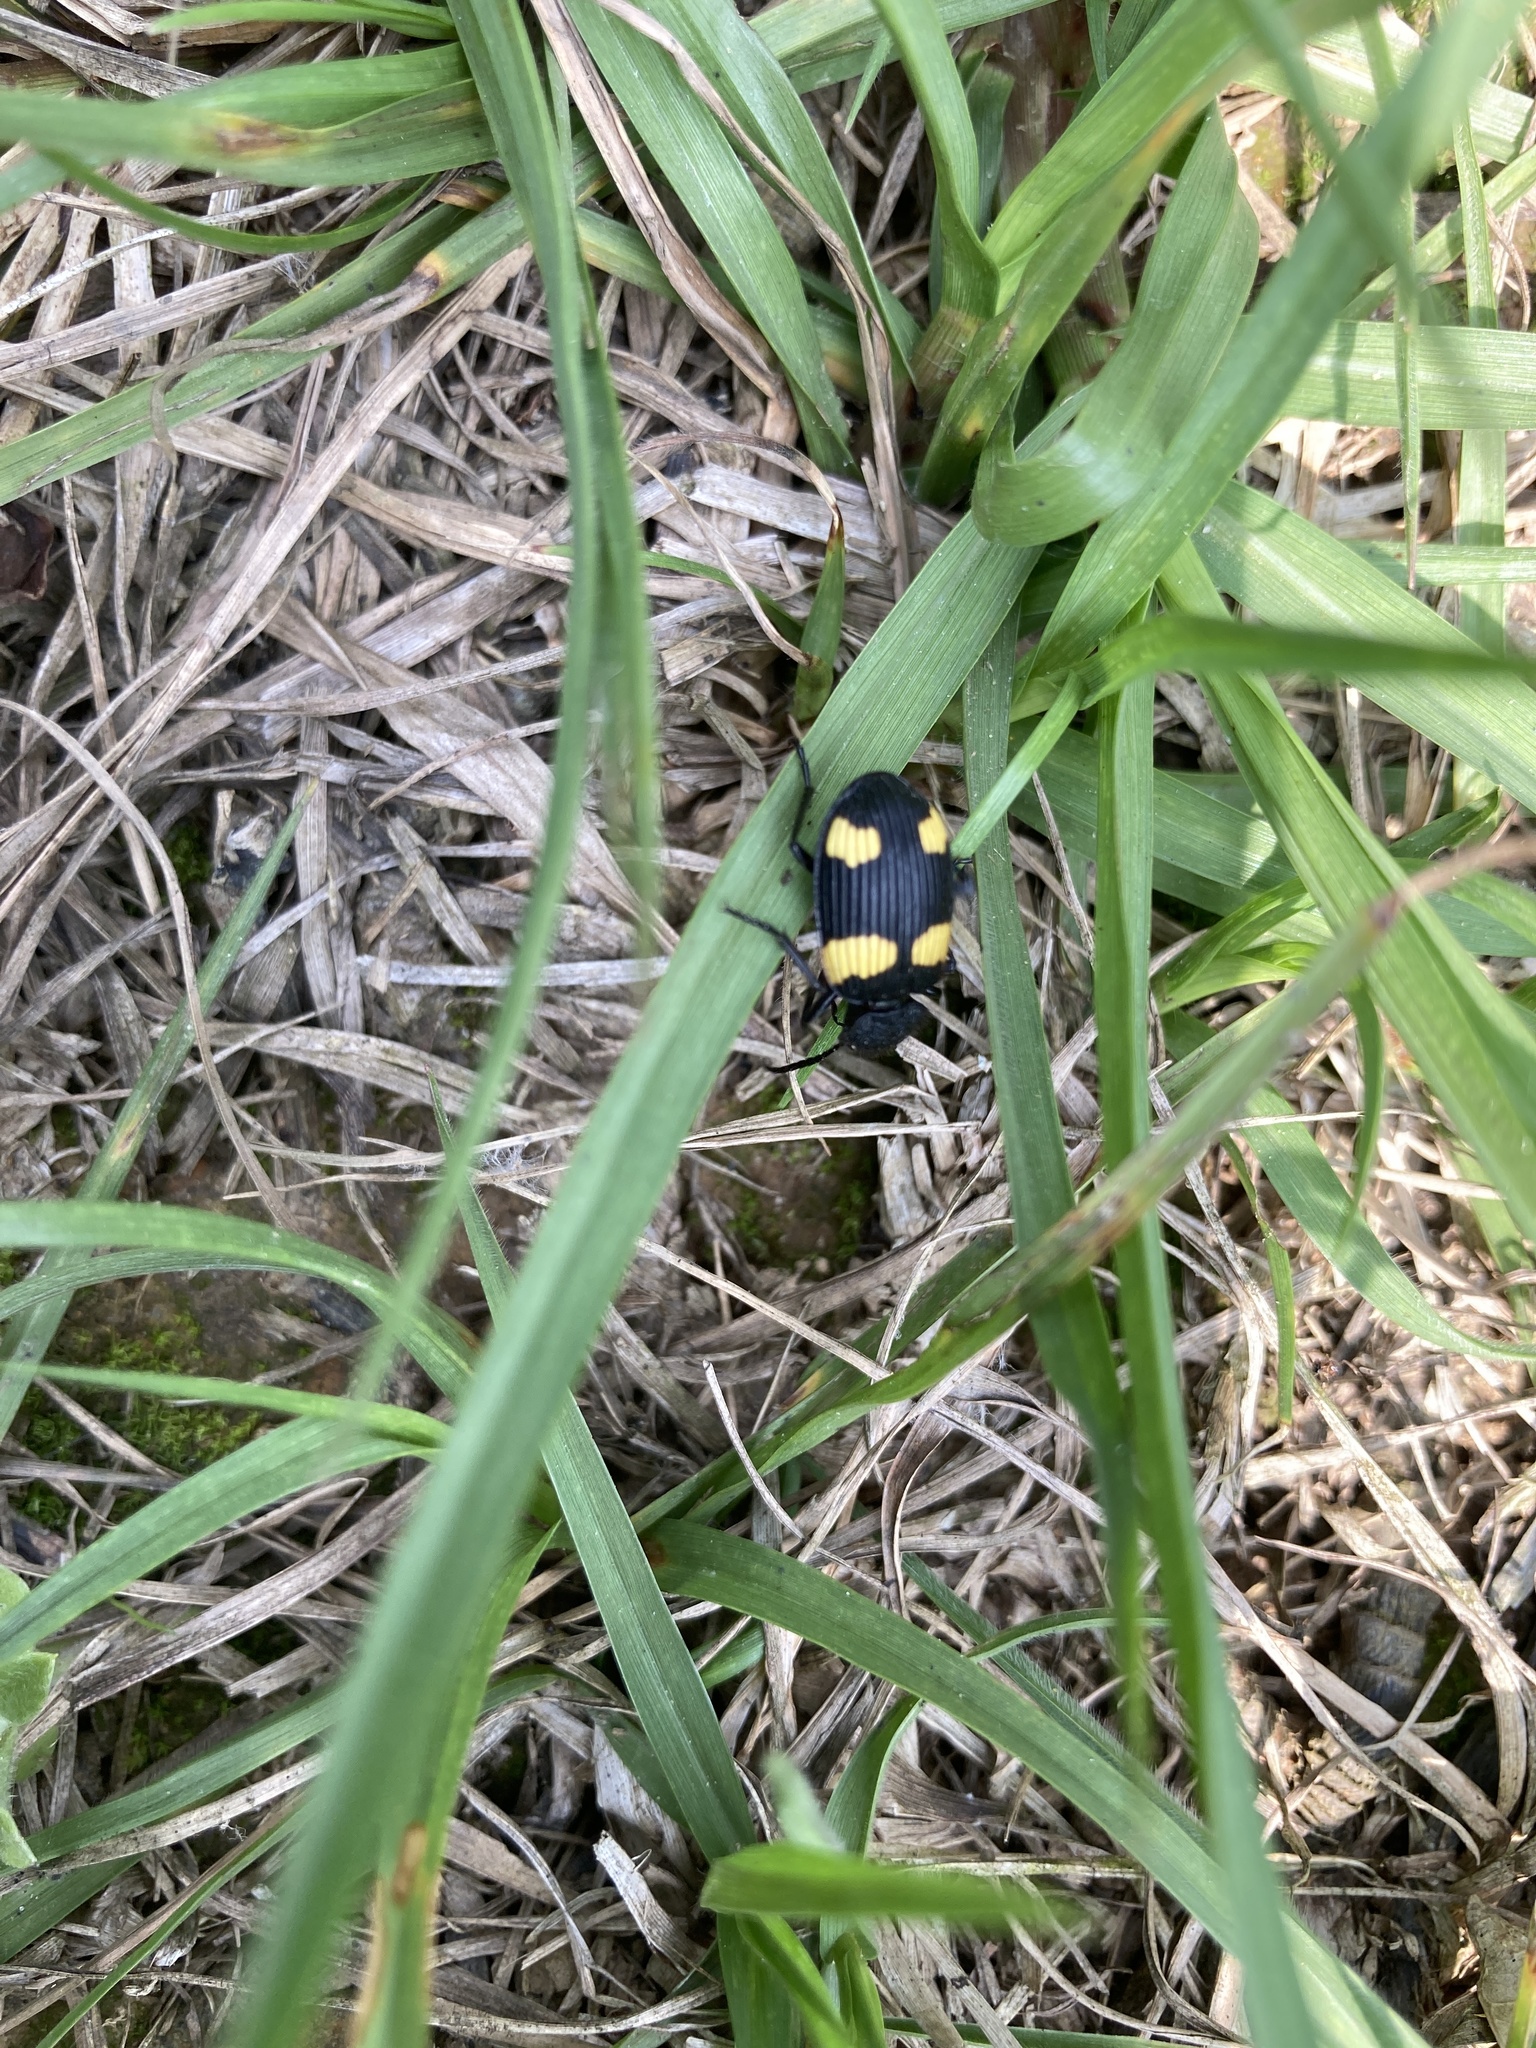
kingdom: Animalia
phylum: Arthropoda
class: Insecta
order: Coleoptera
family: Carabidae
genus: Craspedophorus
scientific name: Craspedophorus mandarinus
